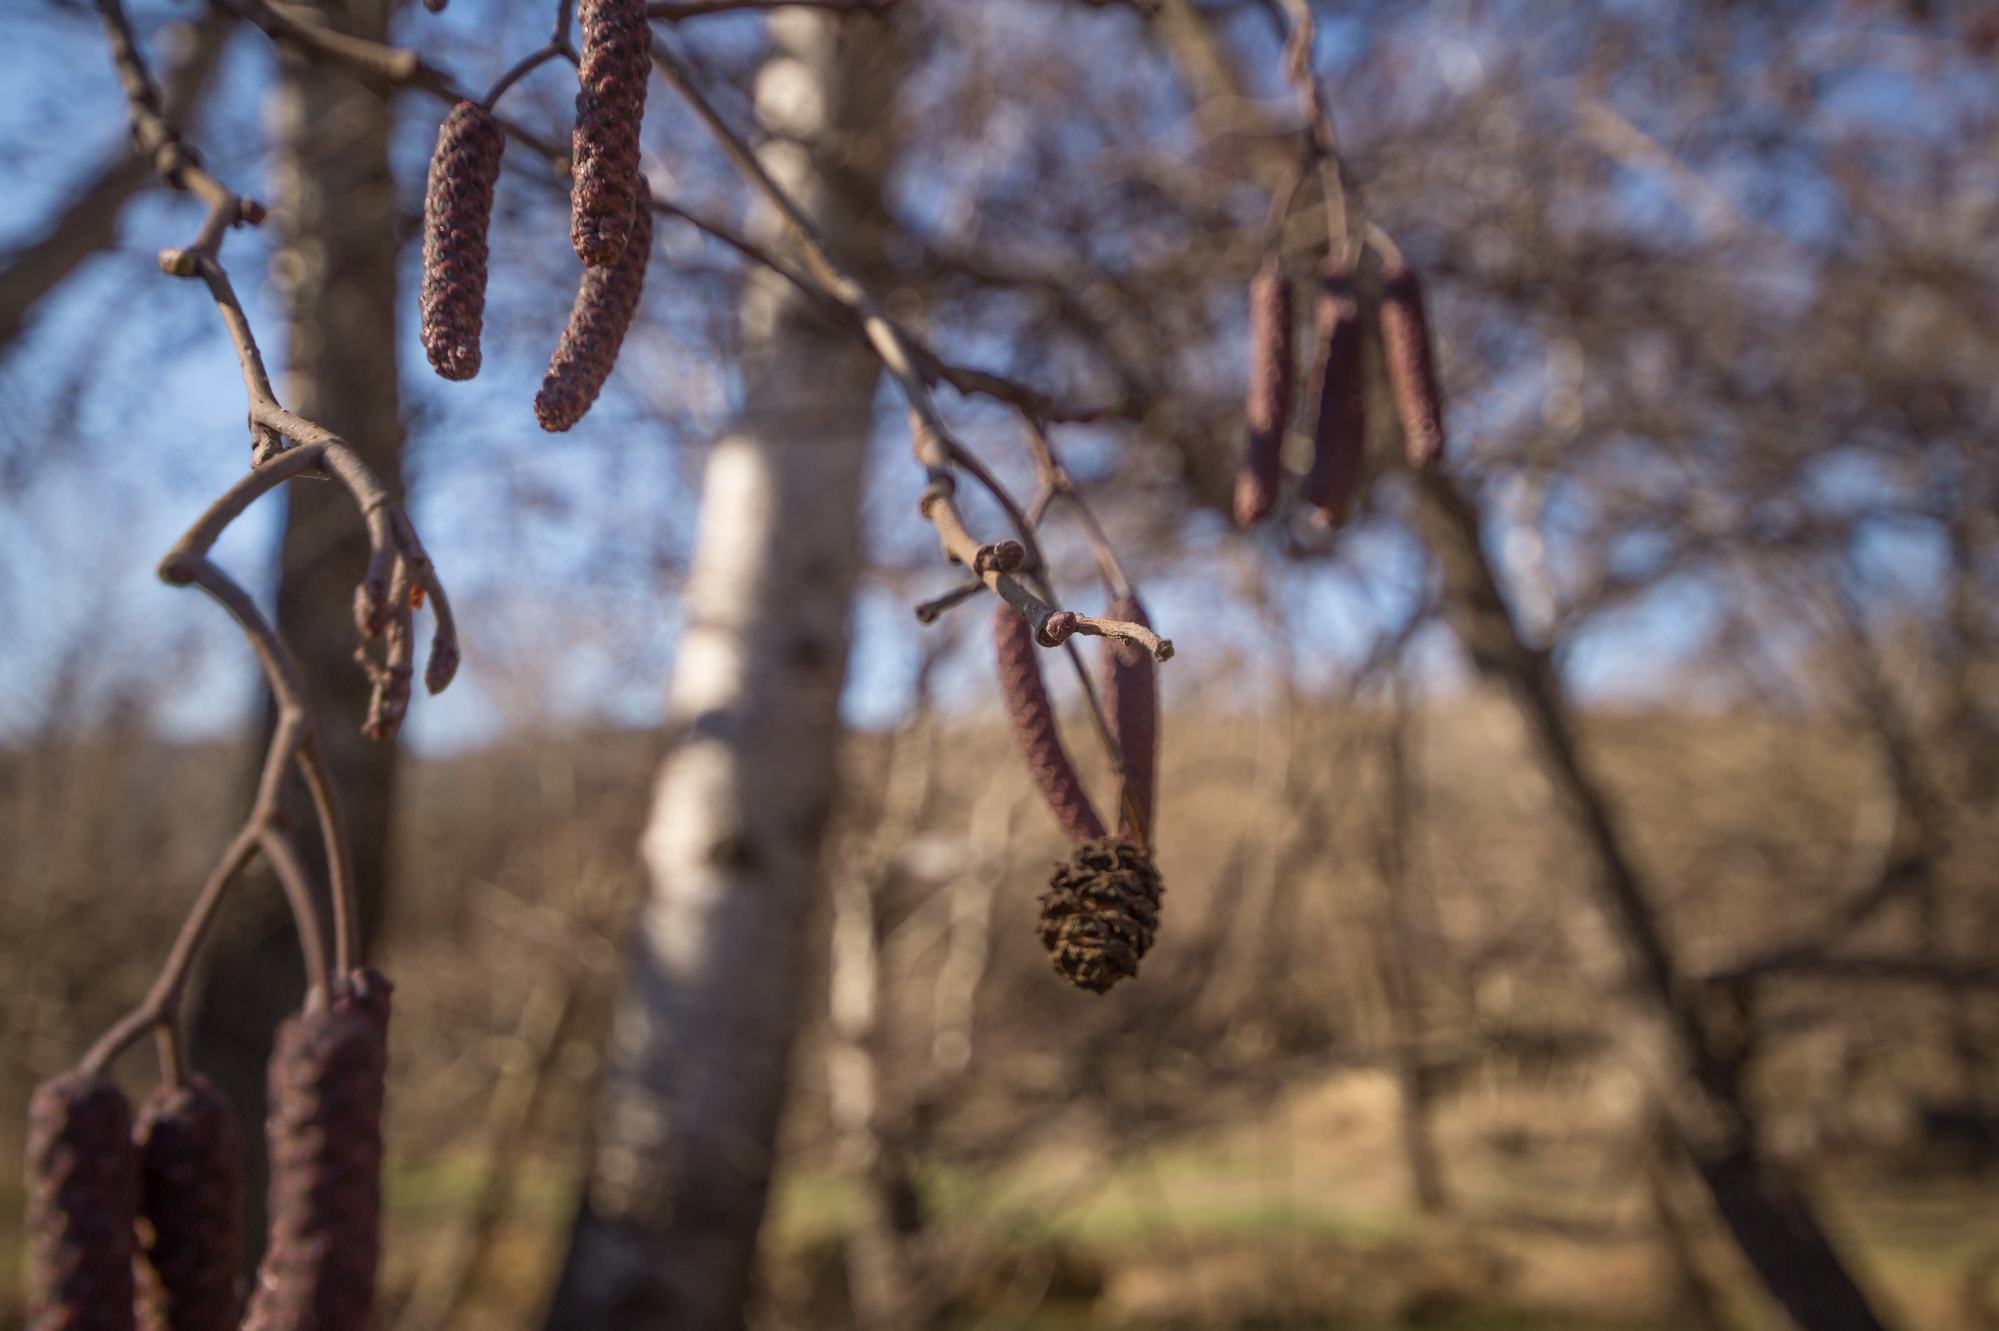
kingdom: Plantae
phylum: Tracheophyta
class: Magnoliopsida
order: Fagales
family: Betulaceae
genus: Alnus
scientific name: Alnus glutinosa
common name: Black alder
